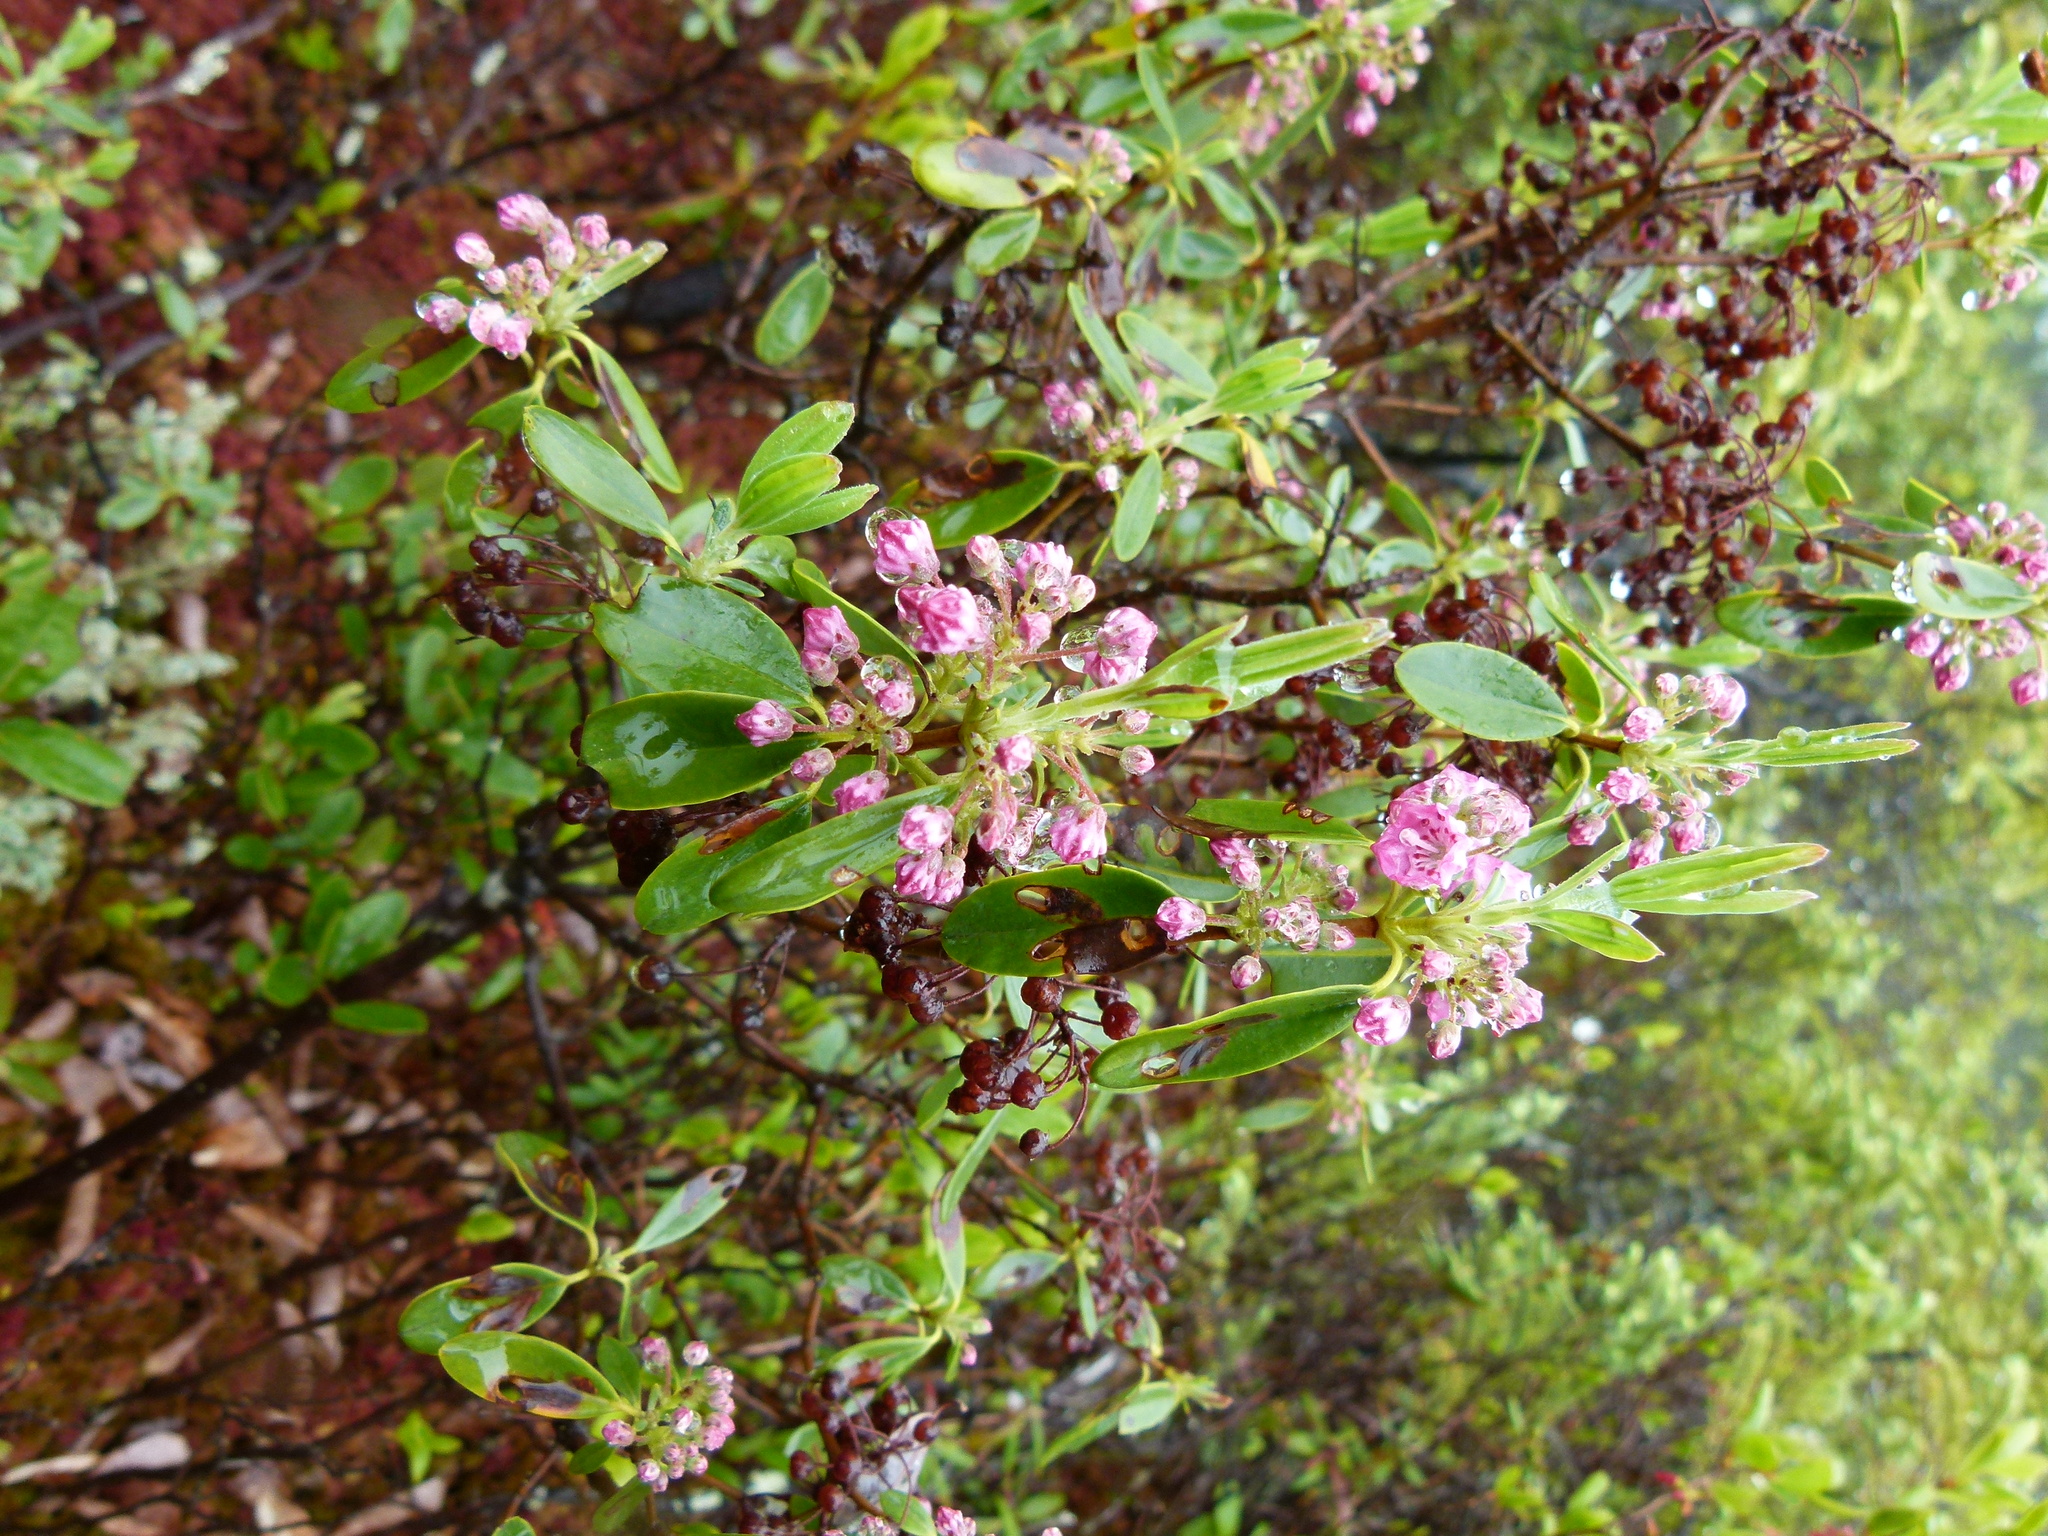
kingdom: Plantae
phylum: Tracheophyta
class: Magnoliopsida
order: Ericales
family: Ericaceae
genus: Kalmia
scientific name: Kalmia angustifolia
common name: Sheep-laurel
